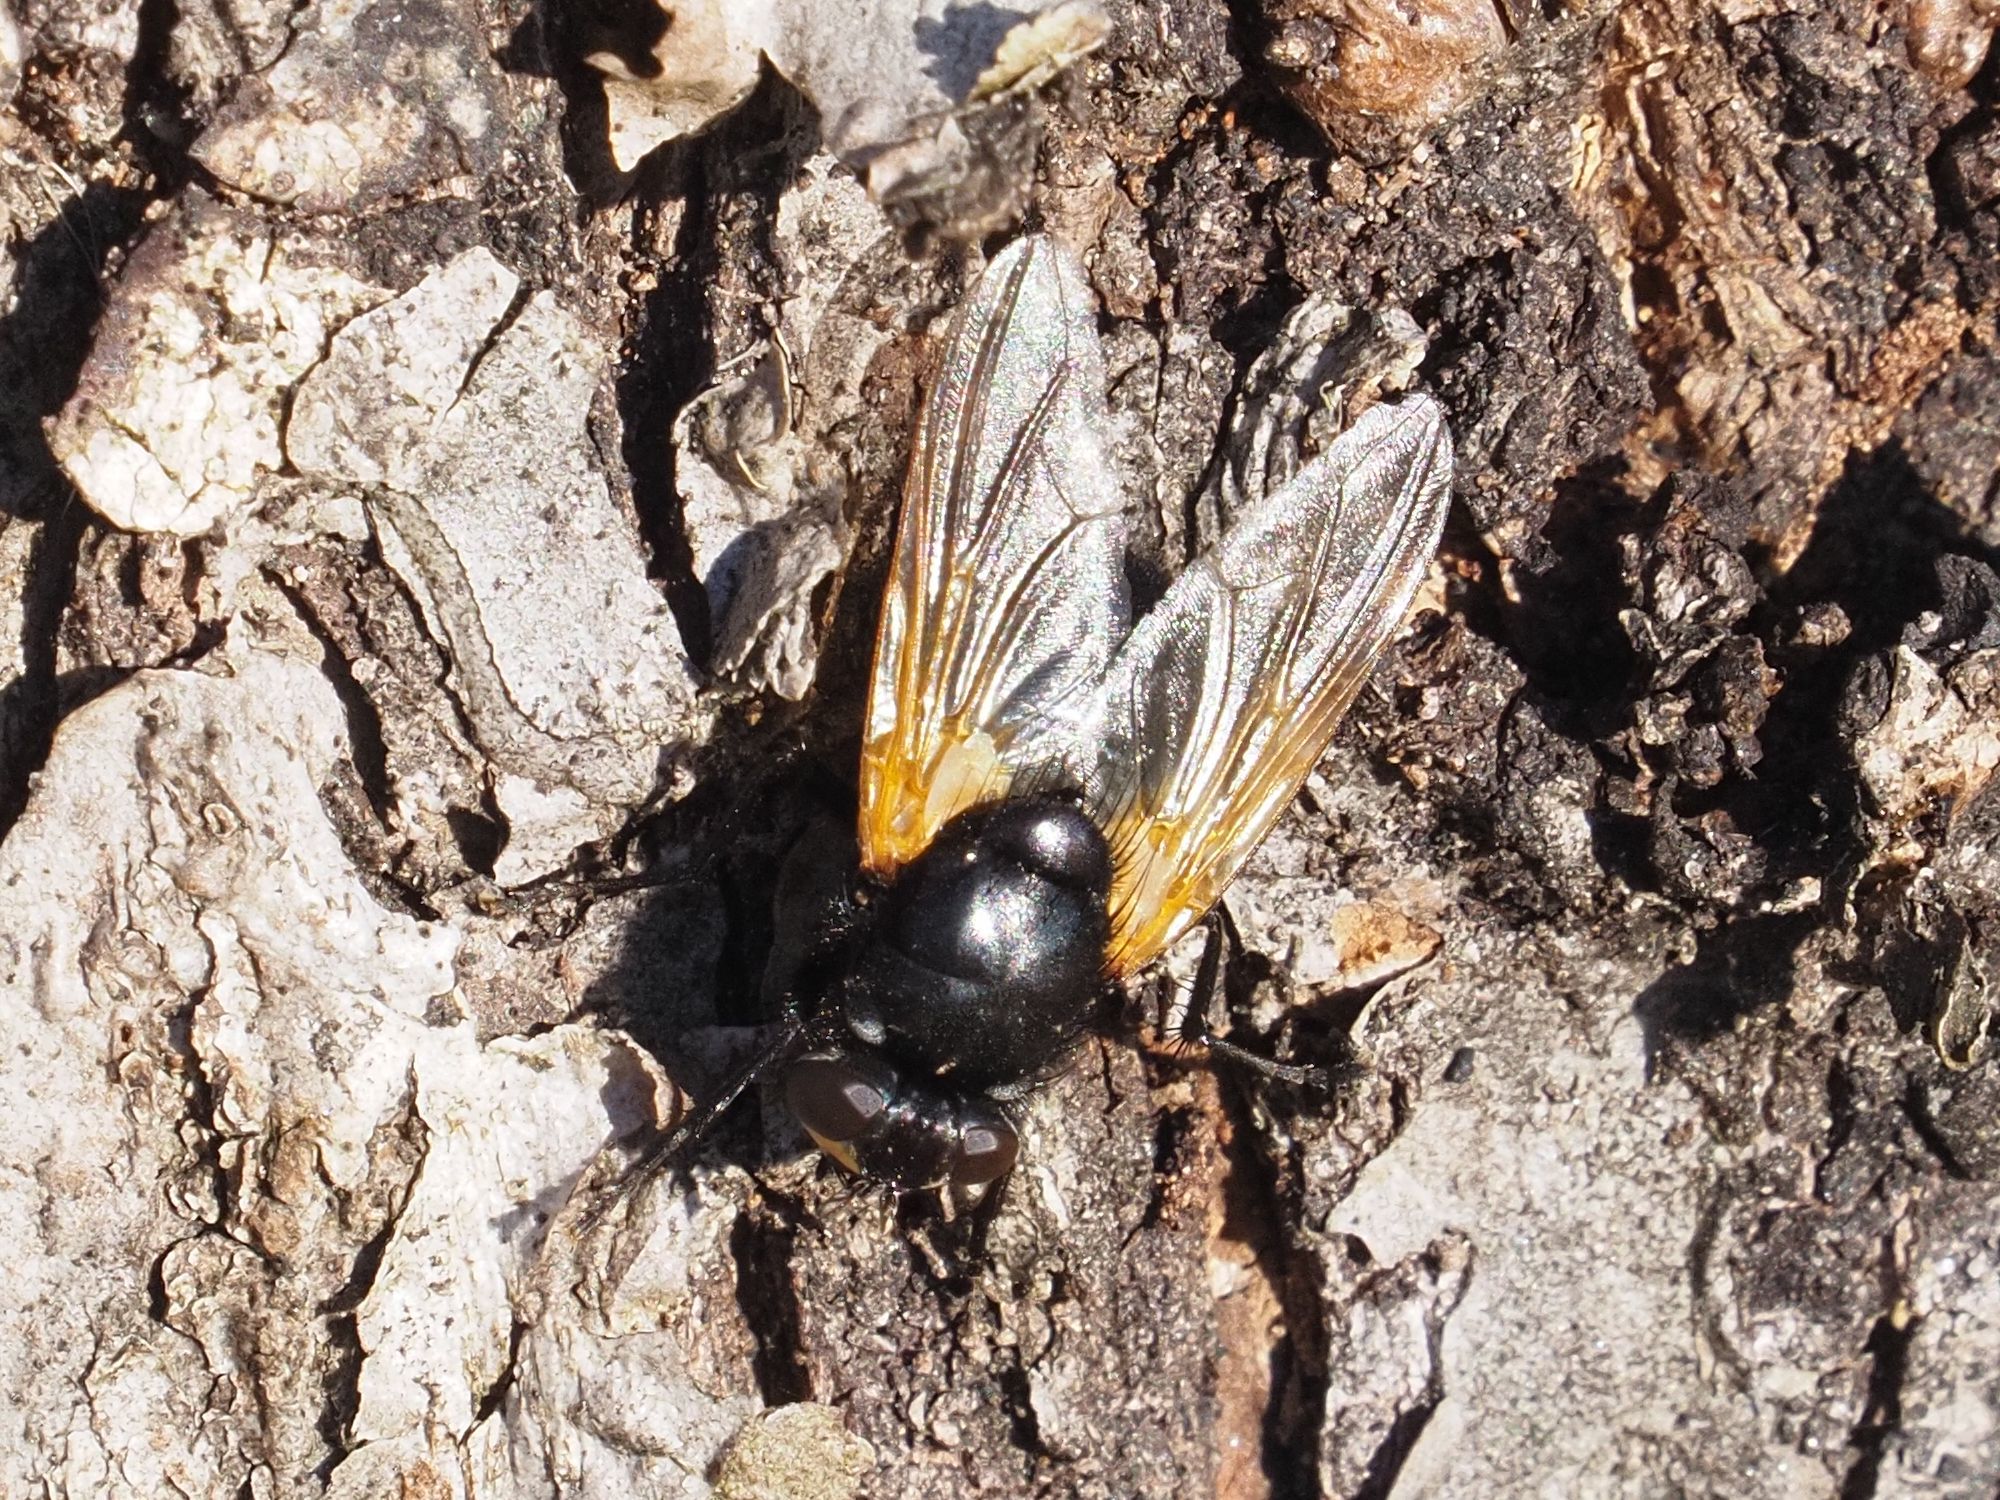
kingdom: Animalia
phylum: Arthropoda
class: Insecta
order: Diptera
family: Muscidae
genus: Mesembrina
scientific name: Mesembrina meridiana
